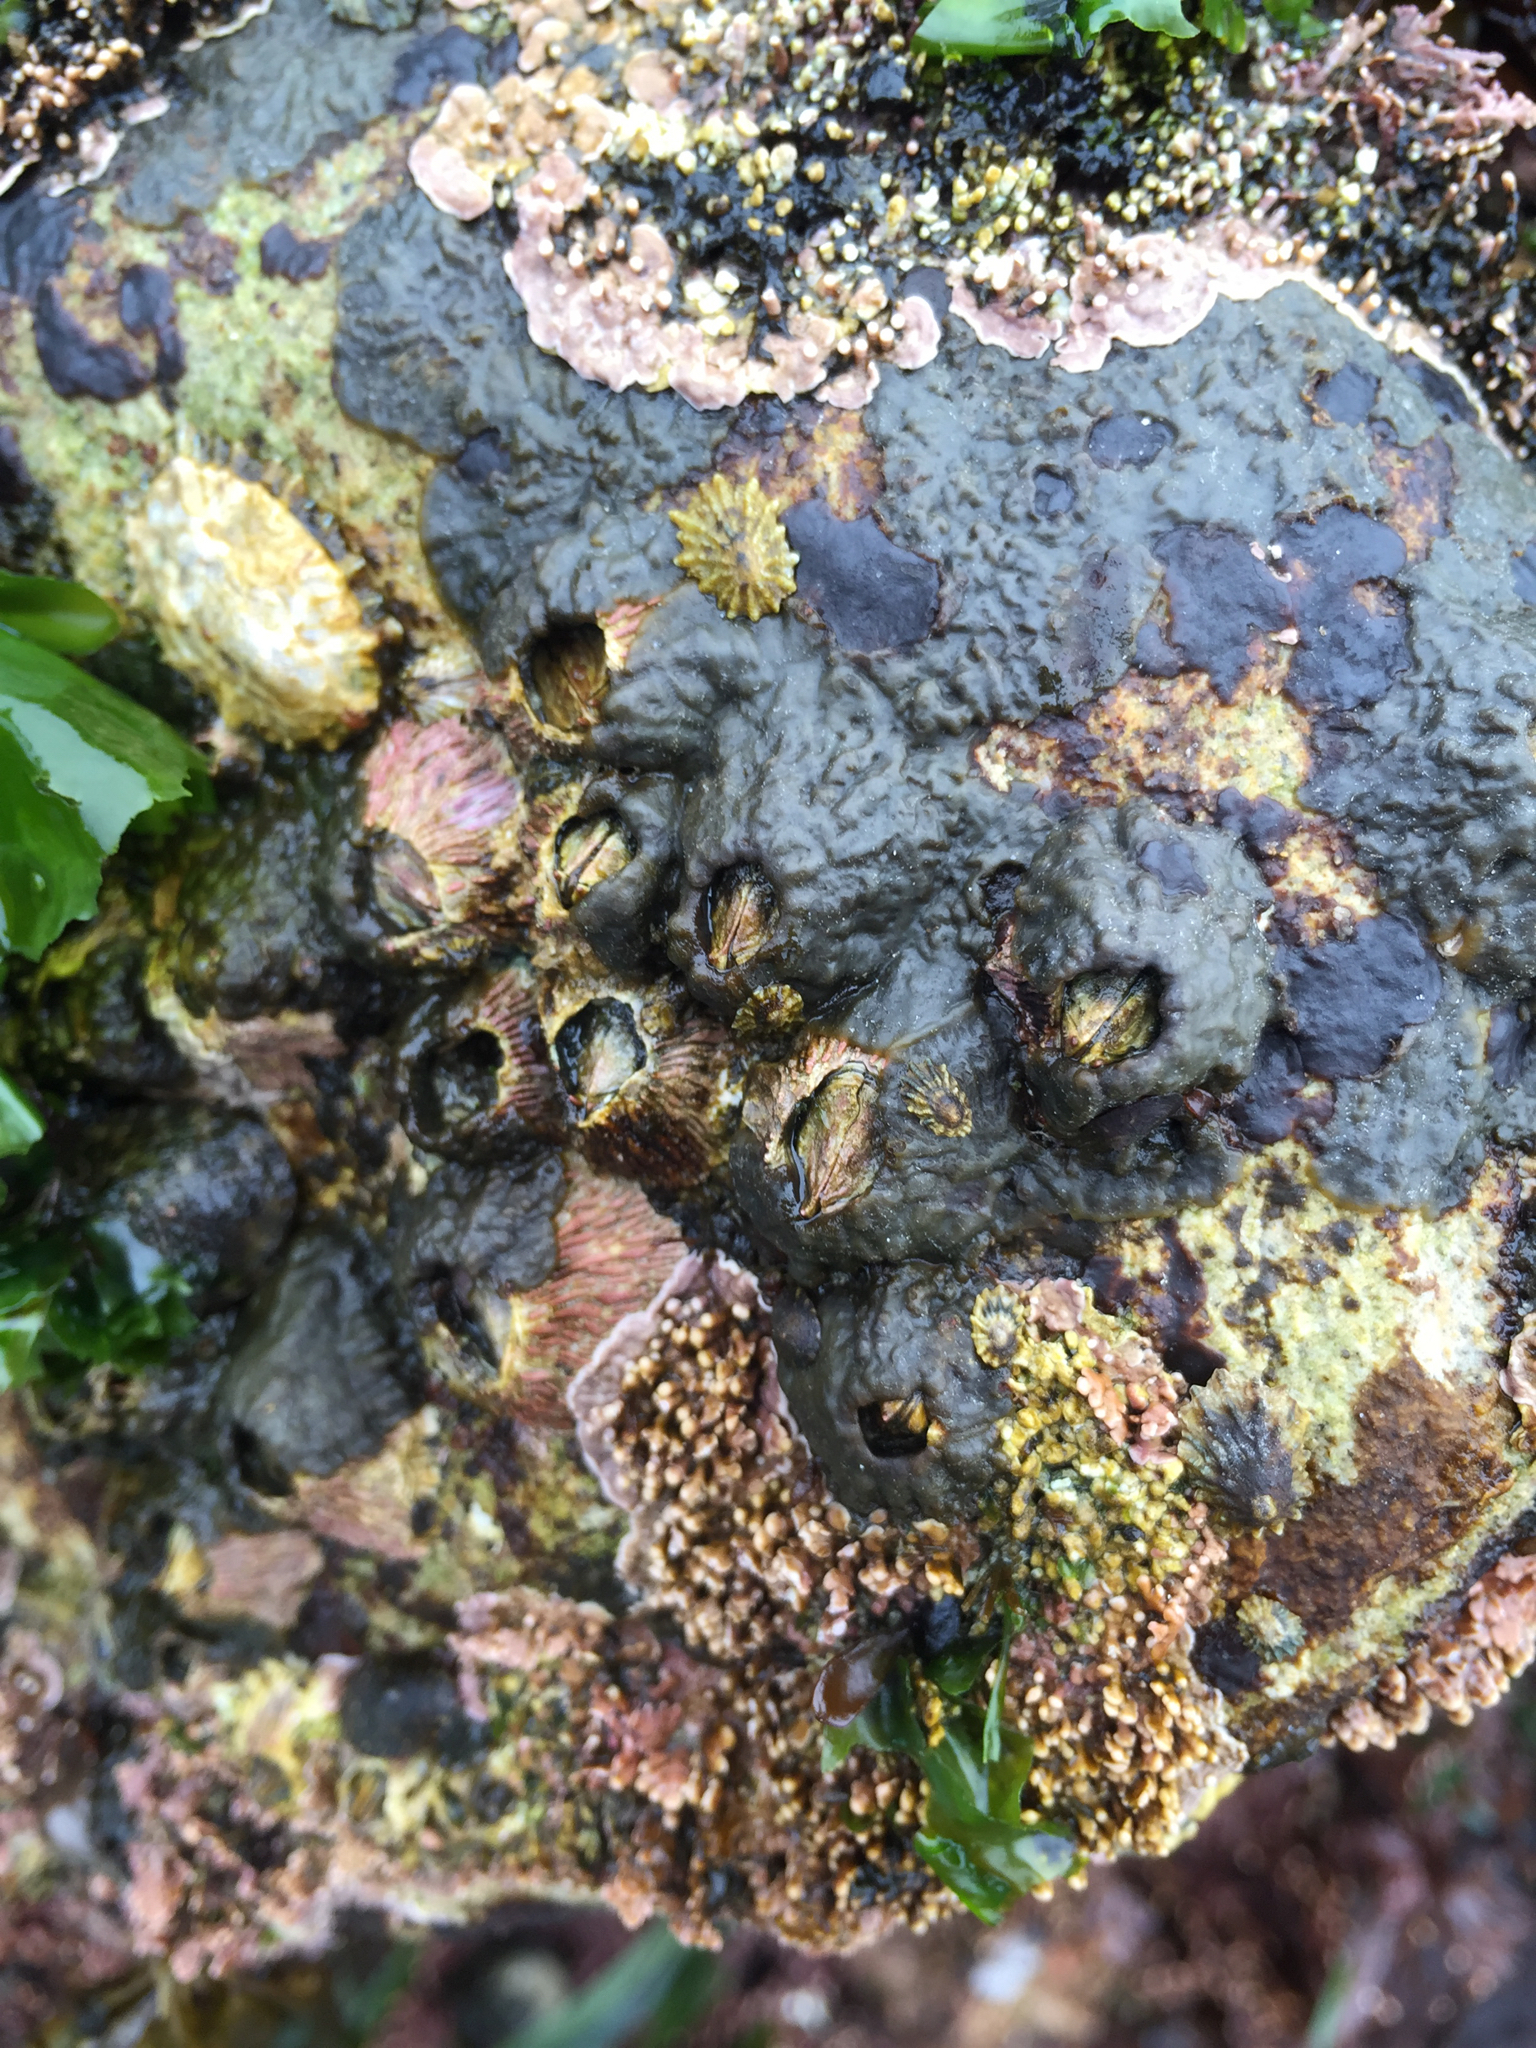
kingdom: Animalia
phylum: Arthropoda
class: Maxillopoda
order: Sessilia
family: Tetraclitidae
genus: Tetraclita
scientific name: Tetraclita rubescens
